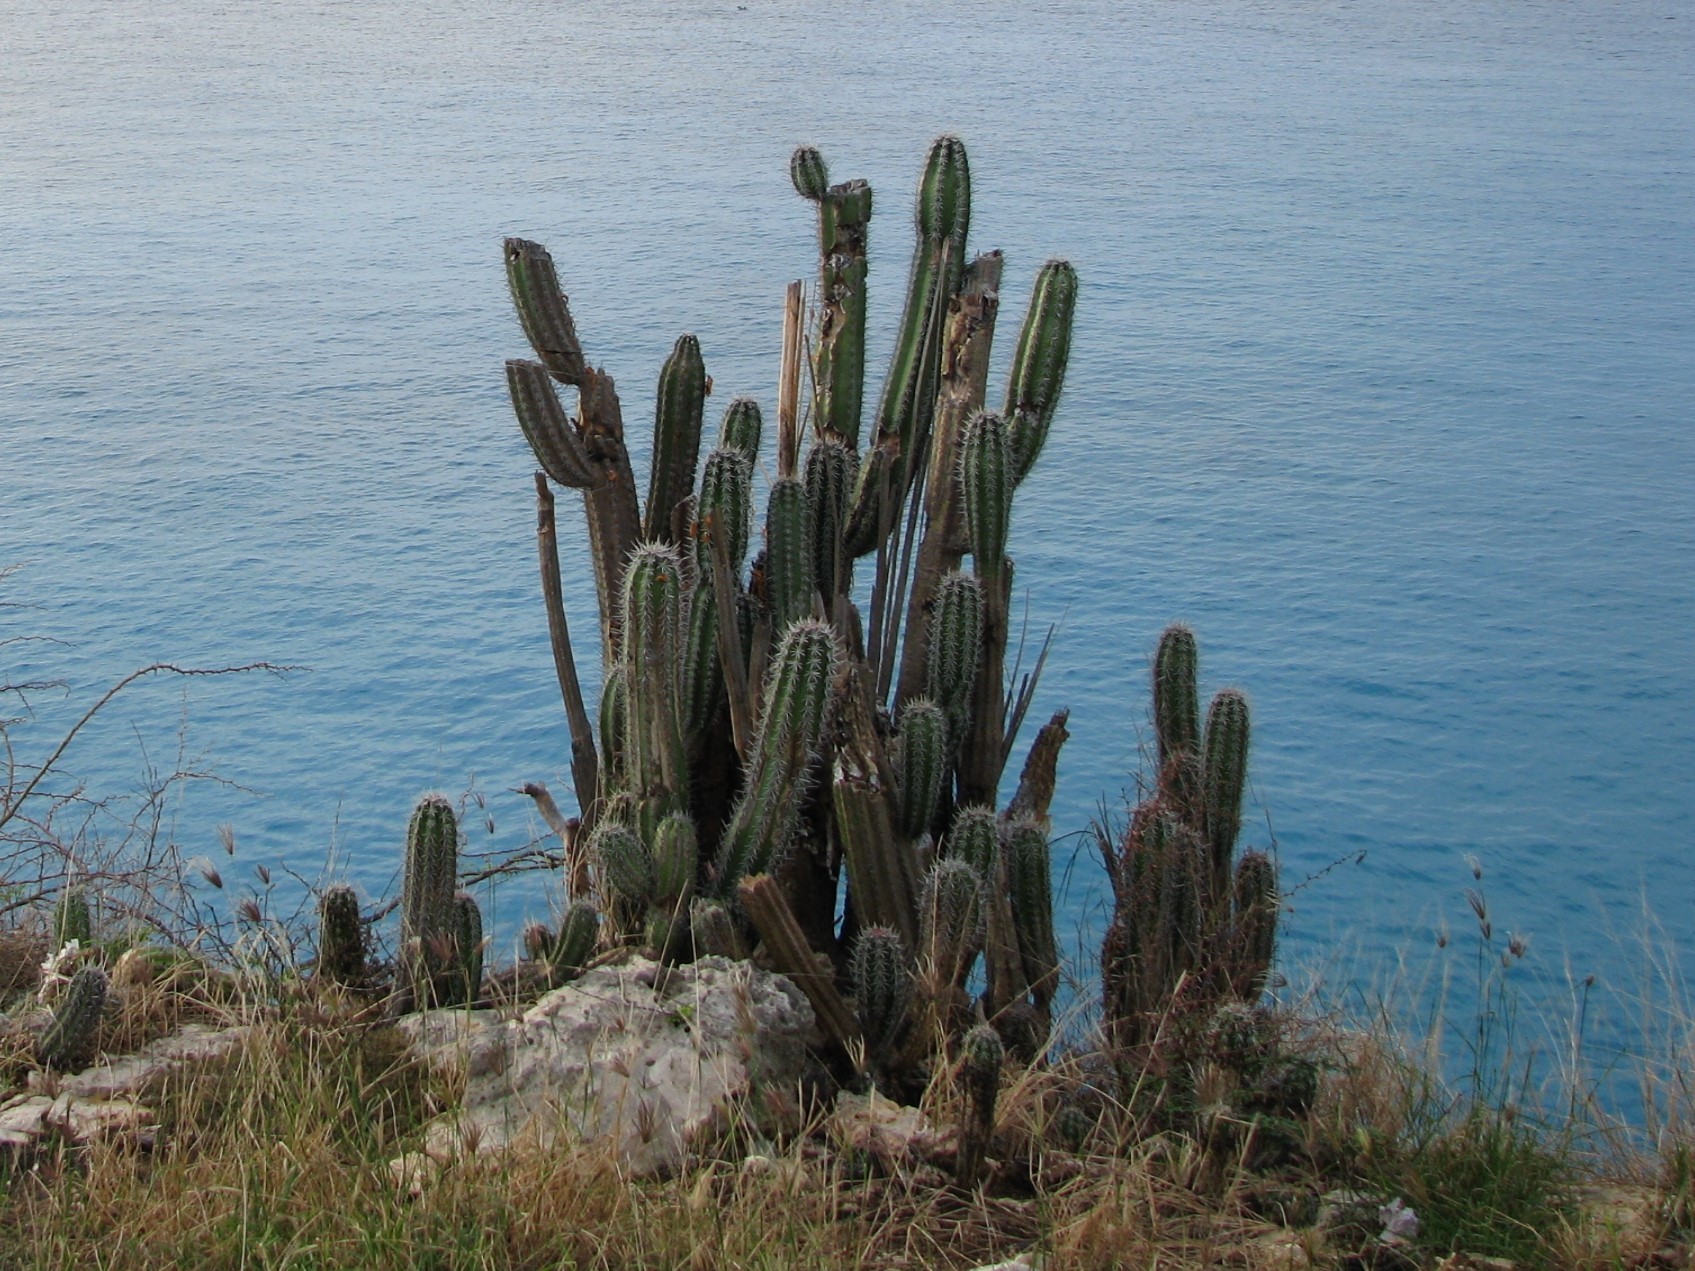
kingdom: Plantae
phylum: Tracheophyta
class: Magnoliopsida
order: Caryophyllales
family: Cactaceae
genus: Stenocereus
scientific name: Stenocereus griseus
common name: Tall candelabra cactus
